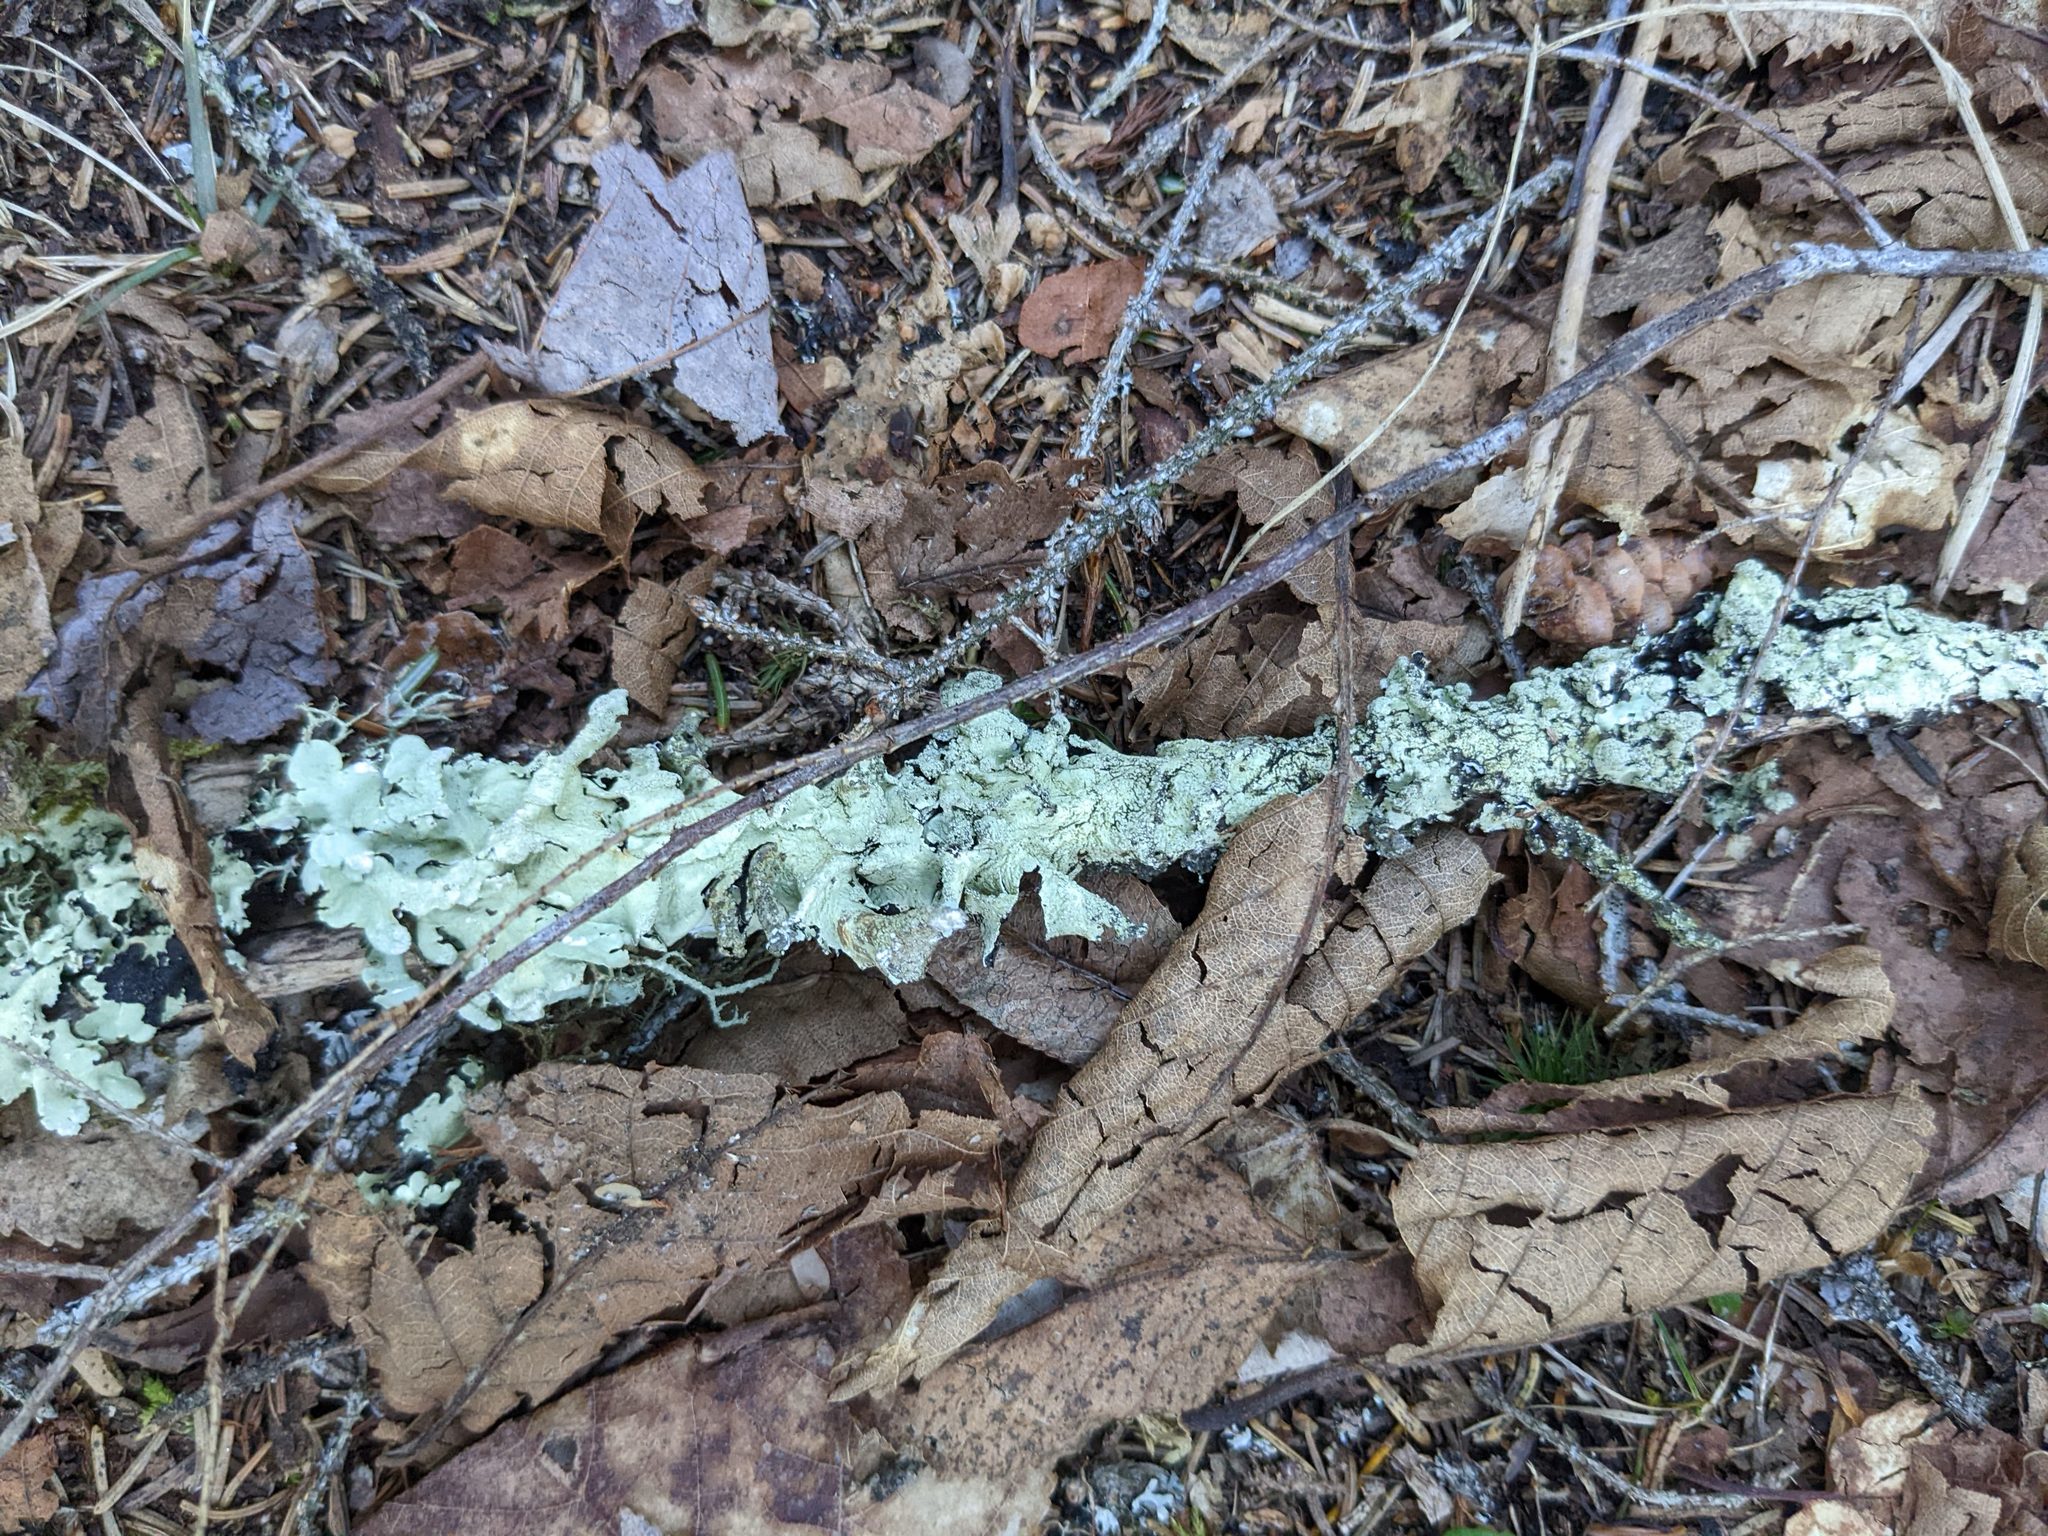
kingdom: Fungi
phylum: Ascomycota
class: Lecanoromycetes
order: Lecanorales
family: Parmeliaceae
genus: Flavoparmelia
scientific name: Flavoparmelia caperata
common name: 40-mile per hour lichen
